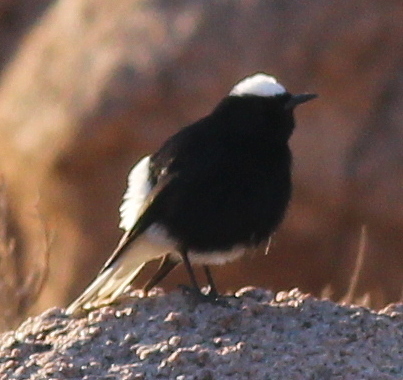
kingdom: Animalia
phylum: Chordata
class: Aves
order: Passeriformes
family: Muscicapidae
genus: Oenanthe
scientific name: Oenanthe leucopyga
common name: White-crowned wheatear
